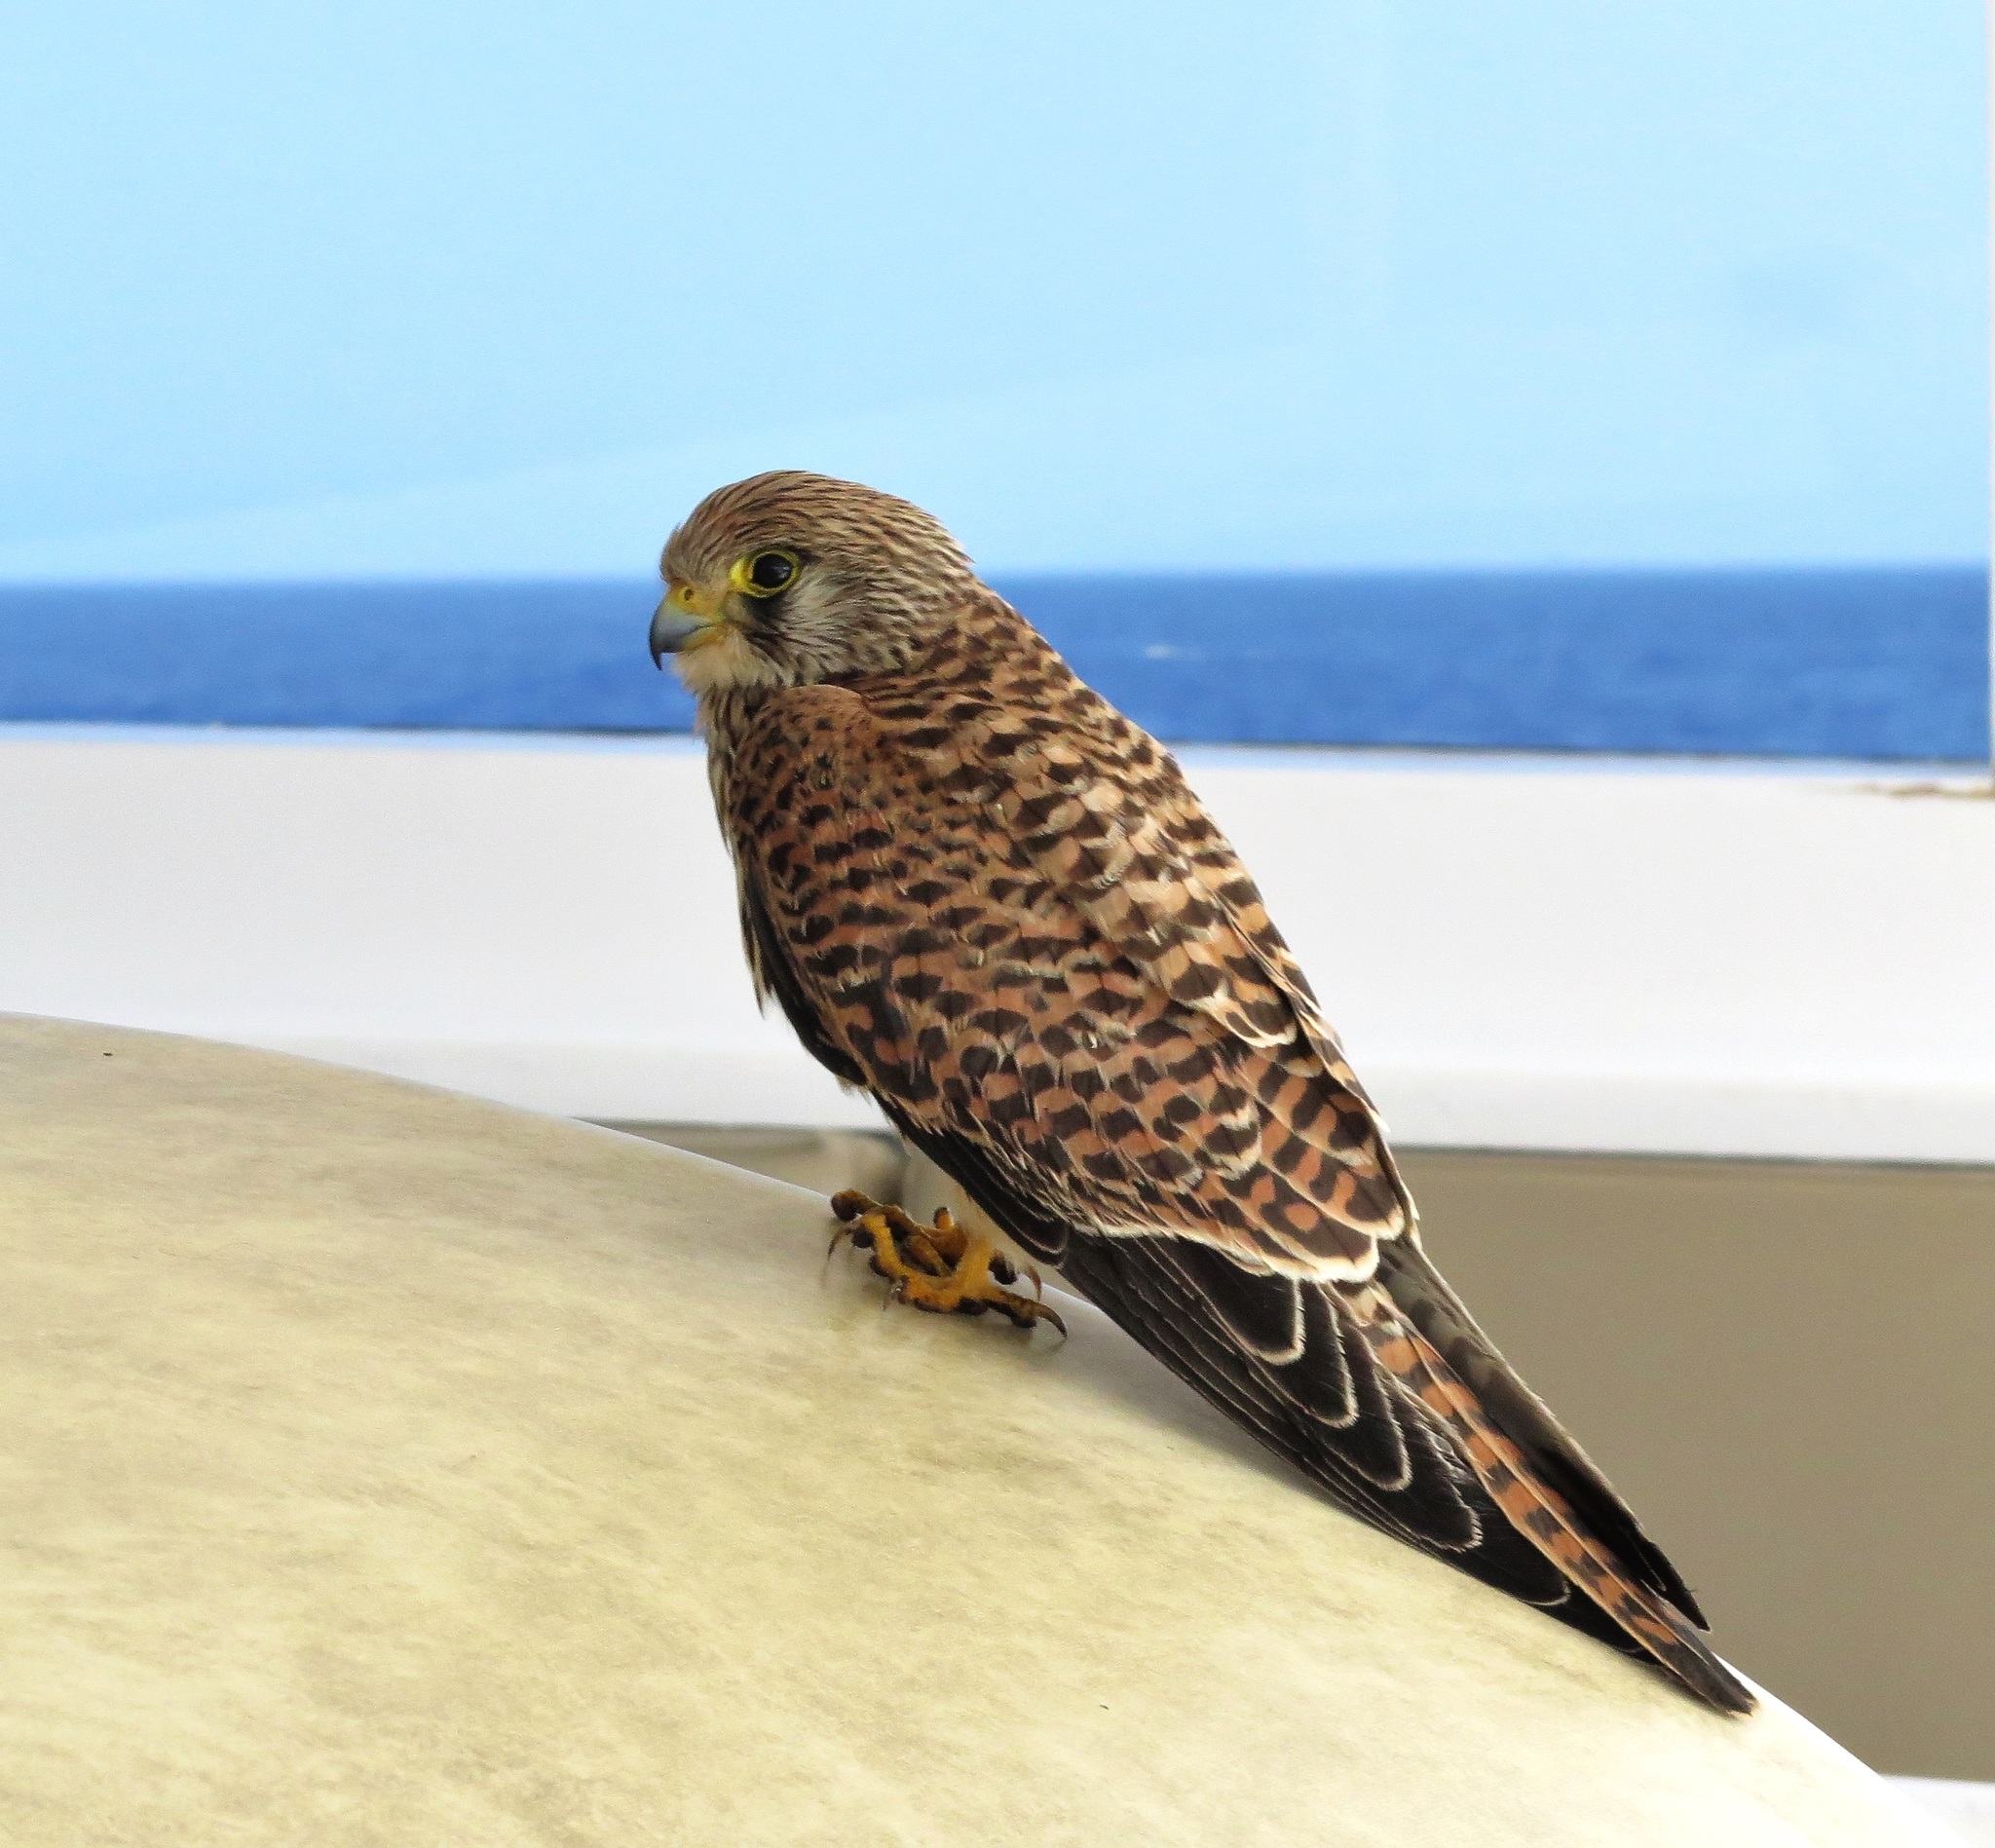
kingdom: Animalia
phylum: Chordata
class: Aves
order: Falconiformes
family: Falconidae
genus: Falco
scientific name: Falco tinnunculus
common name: Common kestrel
